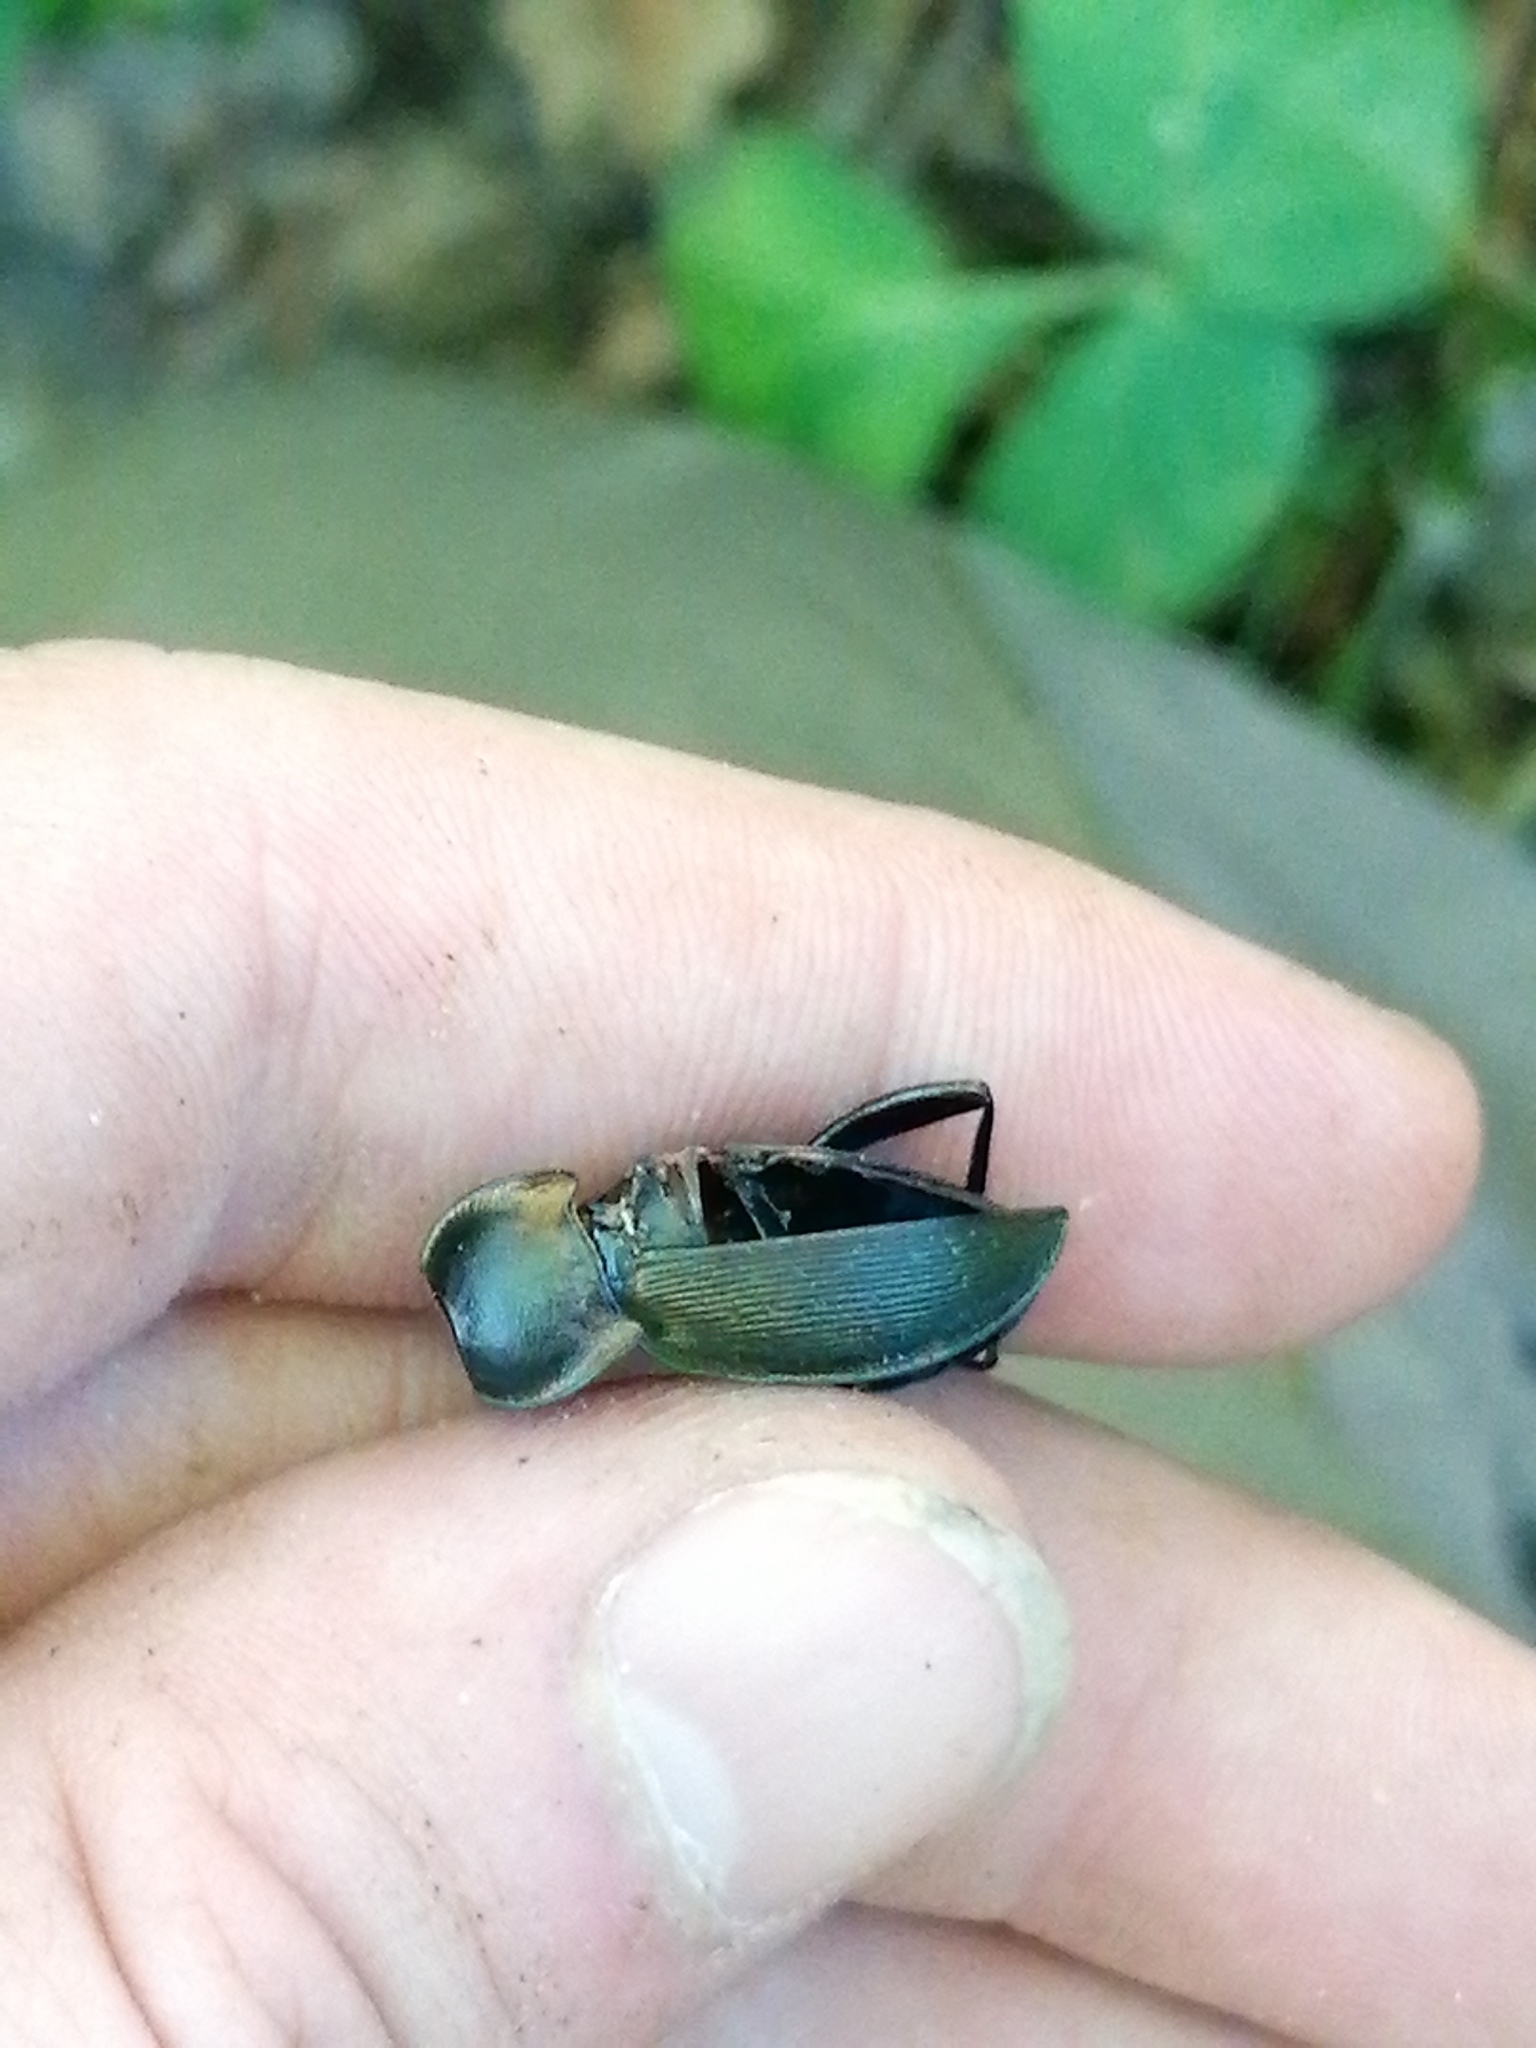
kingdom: Animalia
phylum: Arthropoda
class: Insecta
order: Coleoptera
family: Carabidae
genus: Carabus
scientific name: Carabus scheidleri
